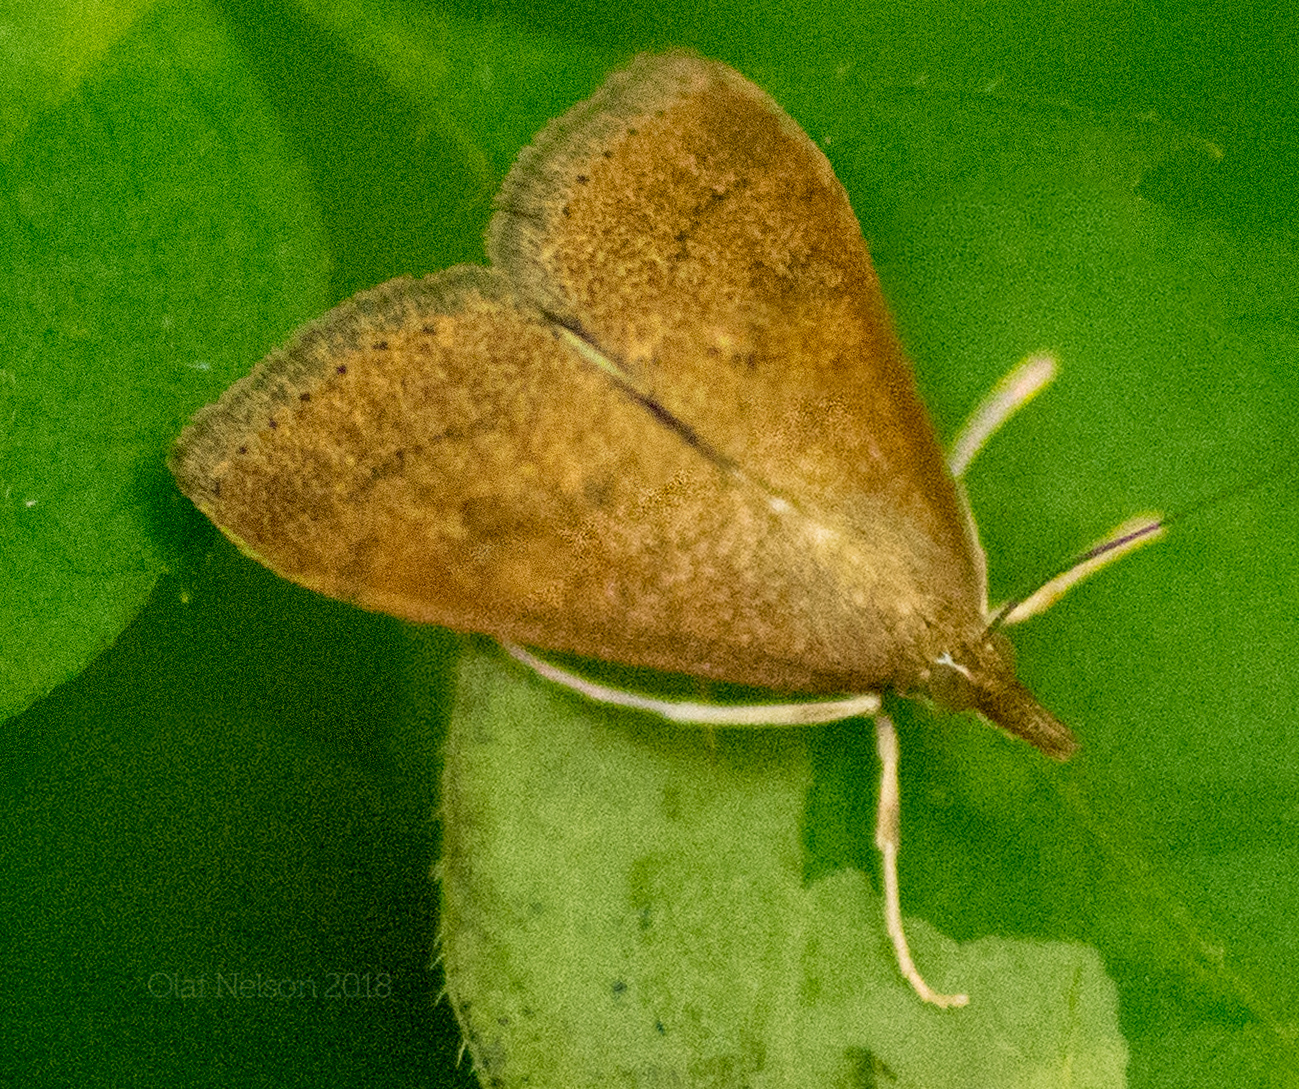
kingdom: Animalia
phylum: Arthropoda
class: Insecta
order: Lepidoptera
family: Crambidae
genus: Udea
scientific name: Udea rubigalis
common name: Celery leaftier moth
